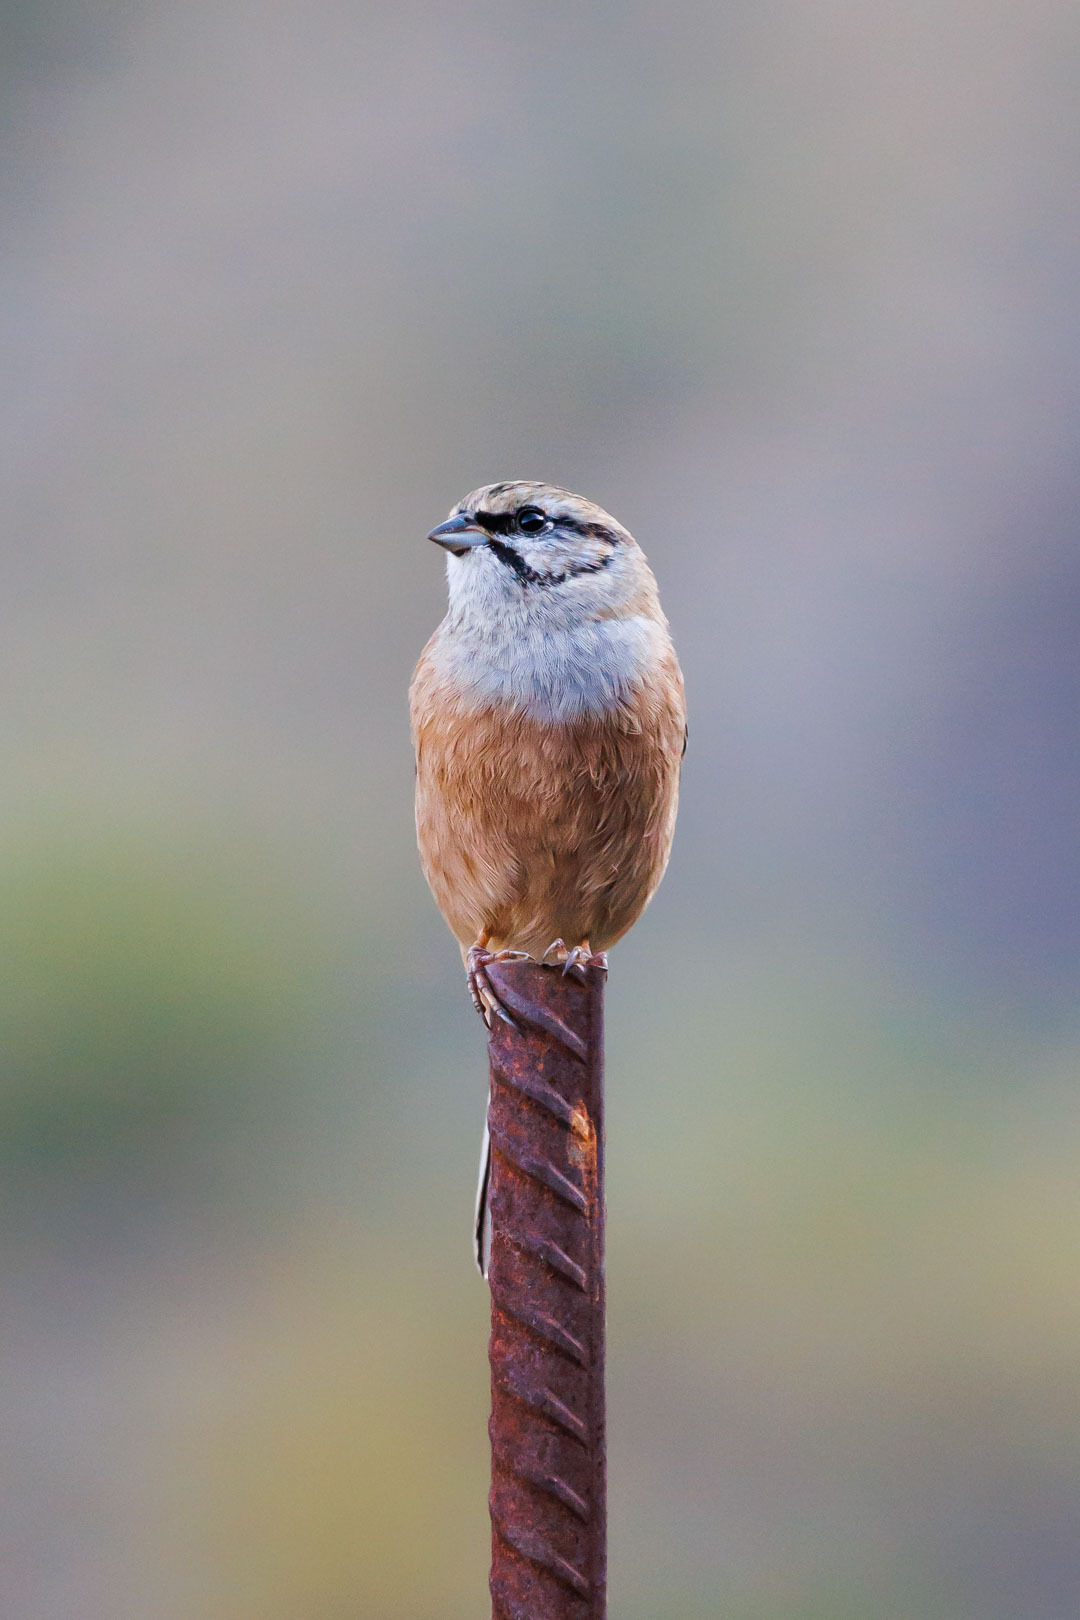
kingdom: Animalia
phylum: Chordata
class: Aves
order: Passeriformes
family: Emberizidae
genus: Emberiza
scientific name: Emberiza cia
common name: Rock bunting
